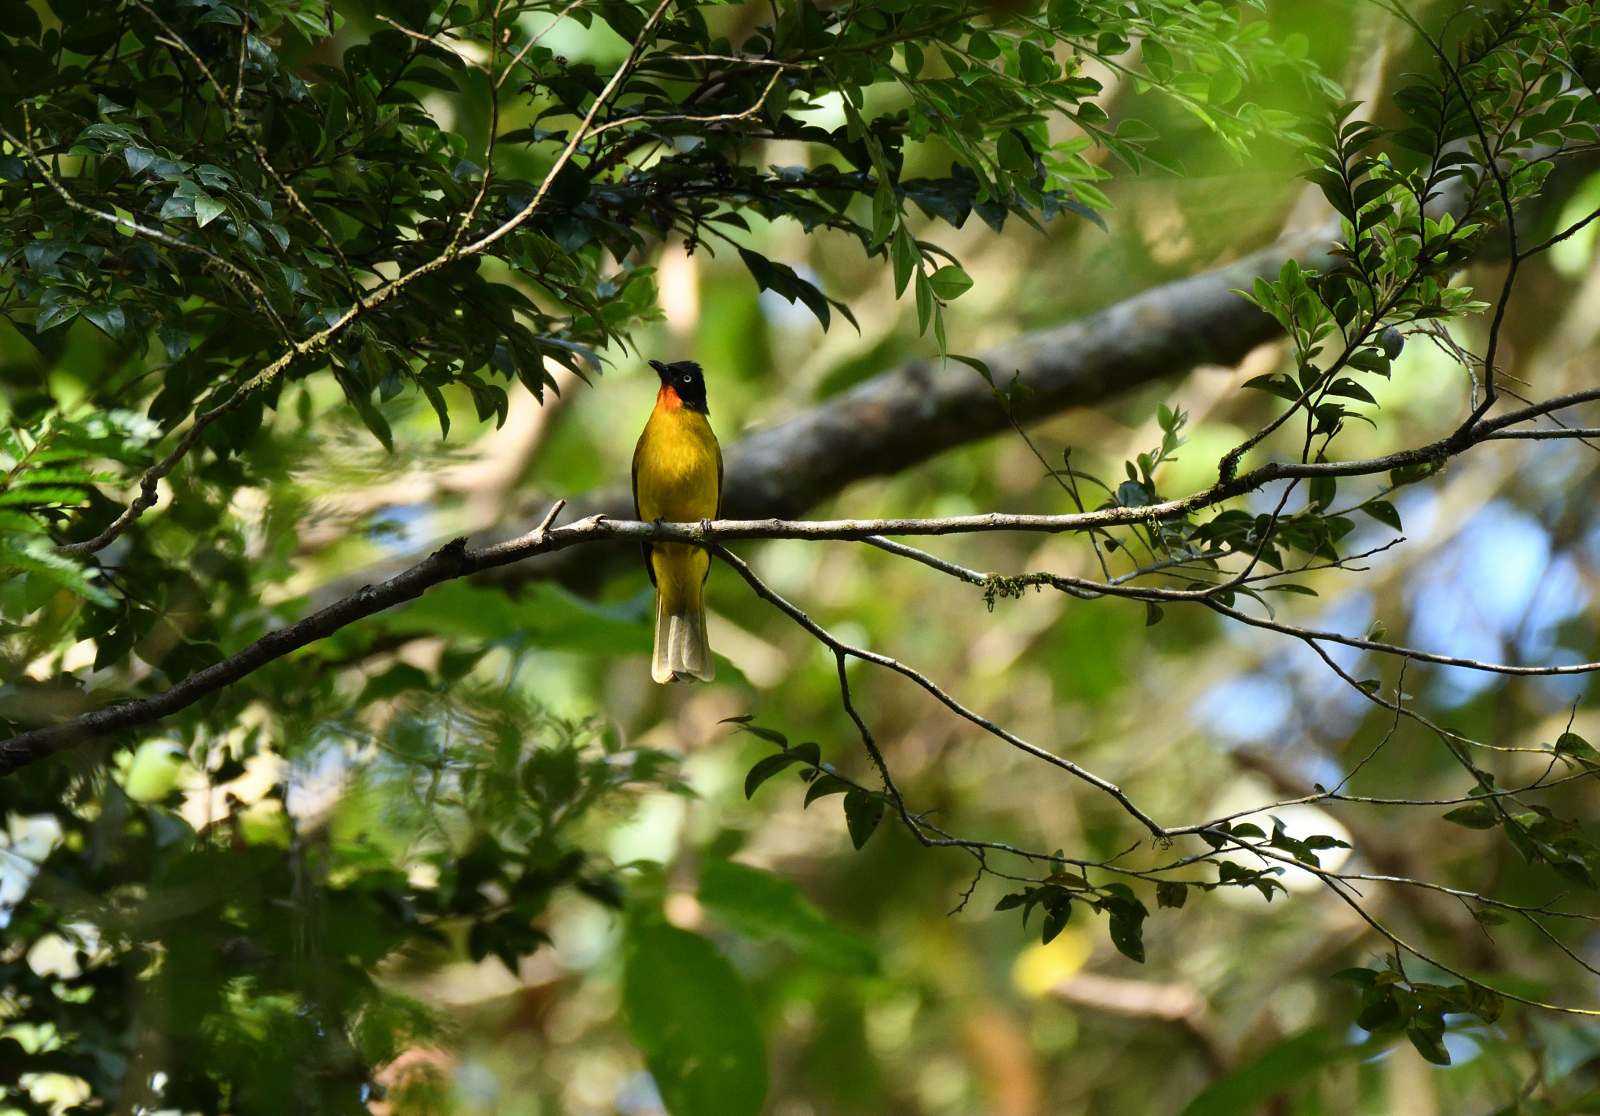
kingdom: Animalia
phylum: Chordata
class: Aves
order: Passeriformes
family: Pycnonotidae
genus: Pycnonotus
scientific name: Pycnonotus gularis
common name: Flame-throated bulbul
